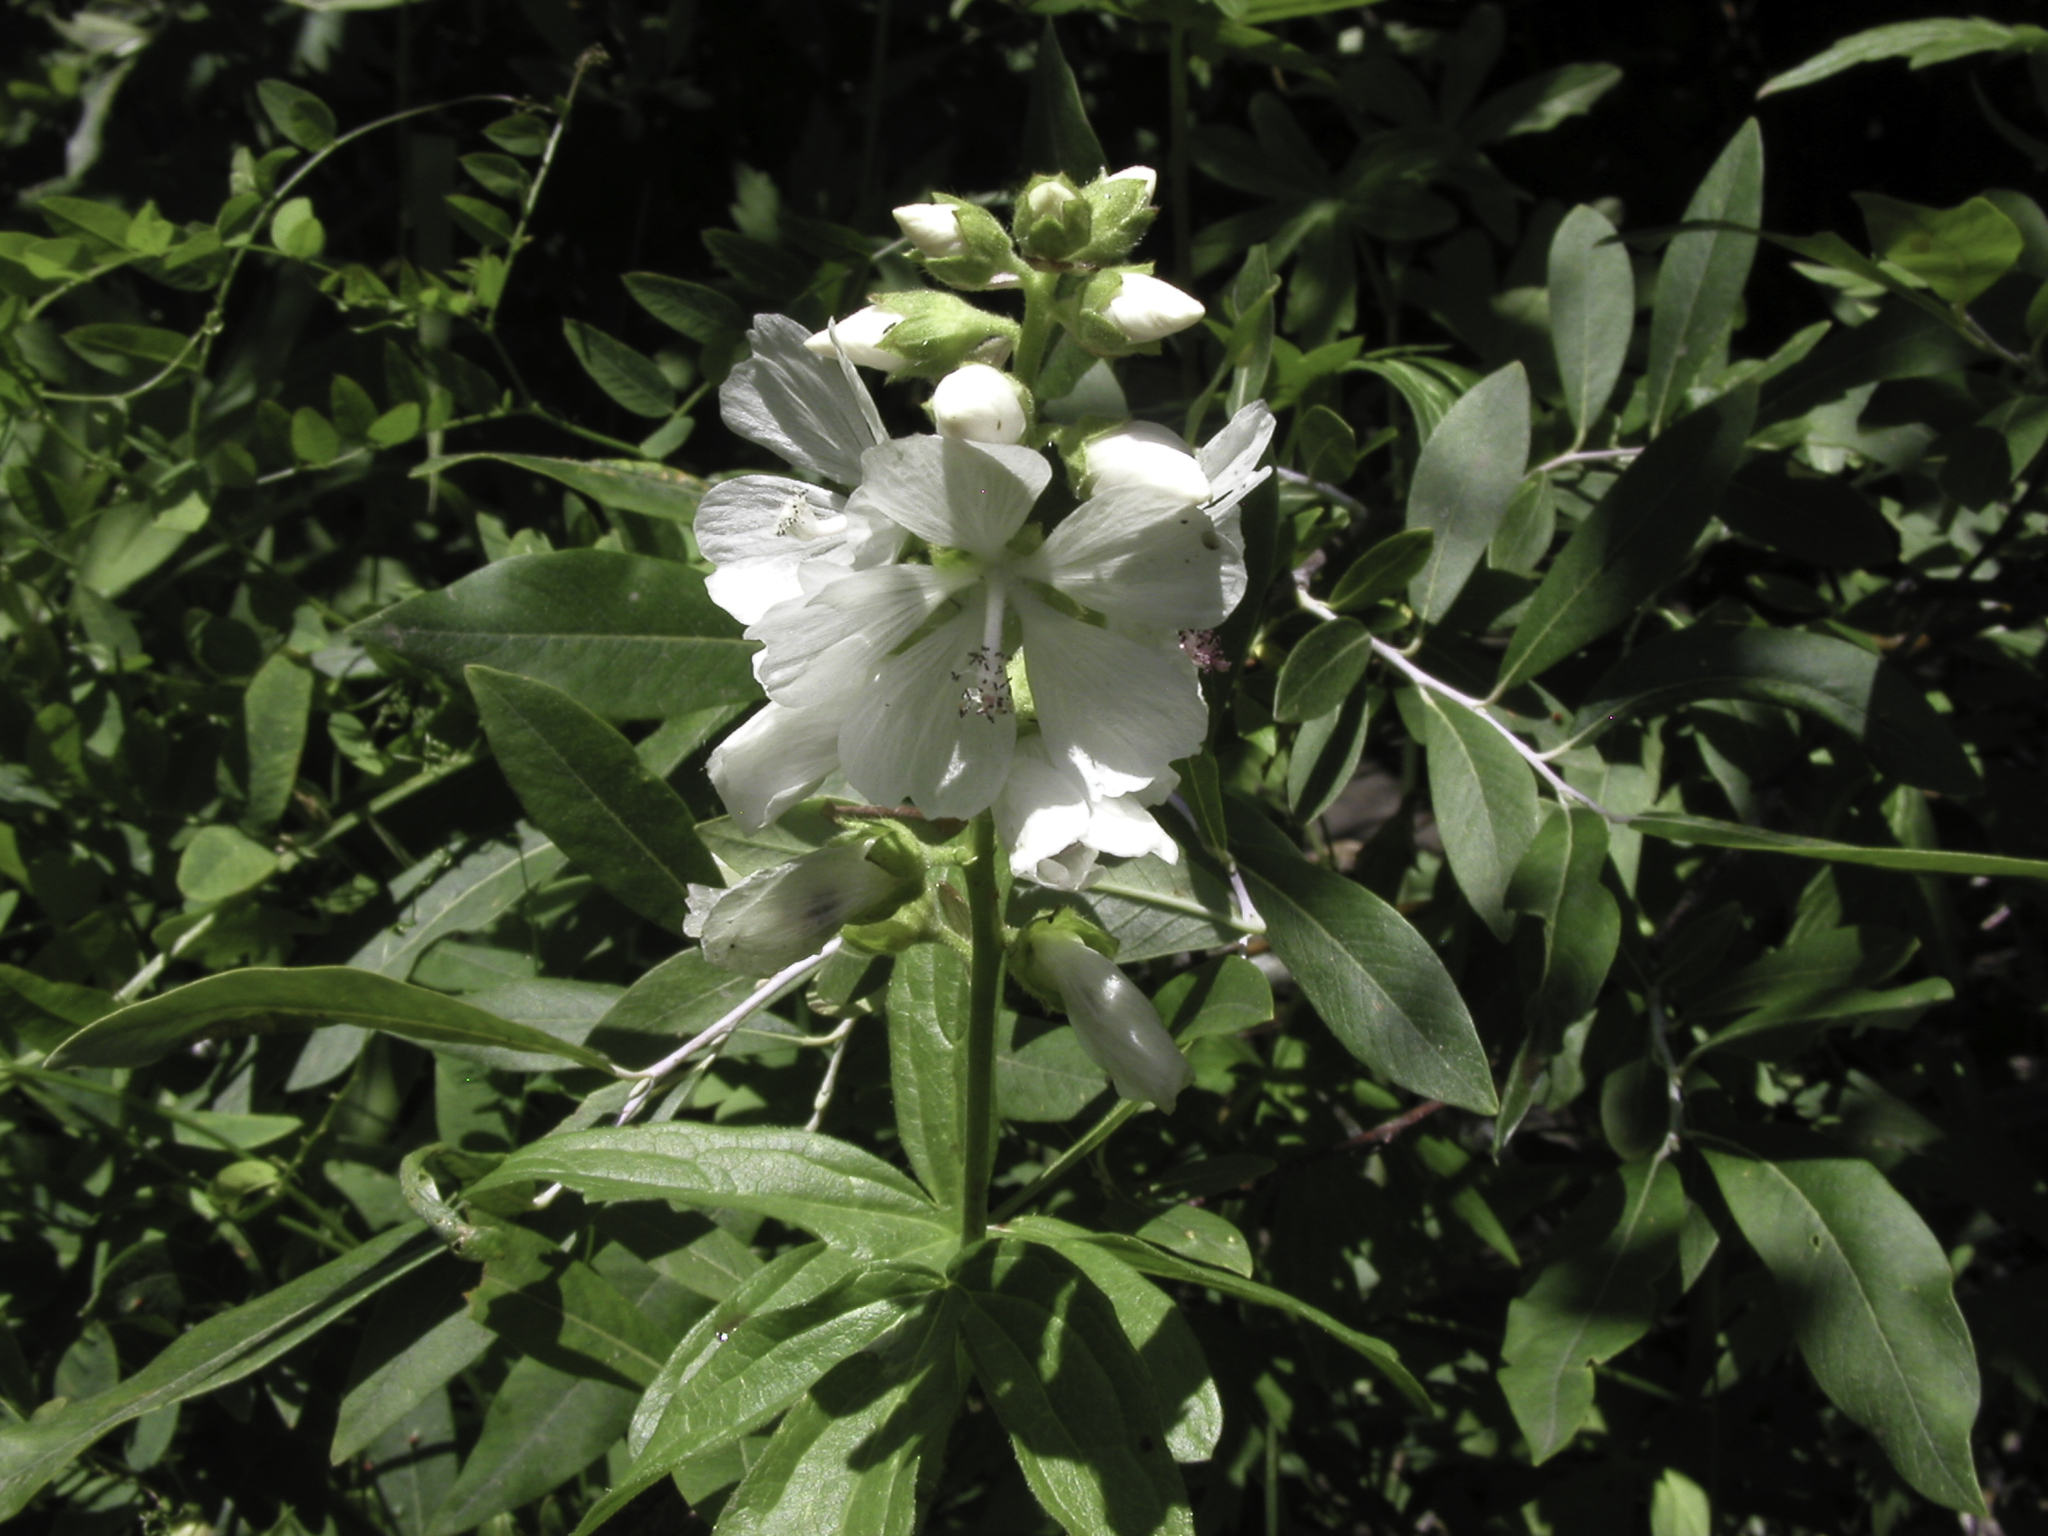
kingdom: Plantae
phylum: Tracheophyta
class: Magnoliopsida
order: Malvales
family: Malvaceae
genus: Sidalcea
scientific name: Sidalcea candida
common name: Prairie-mallow
